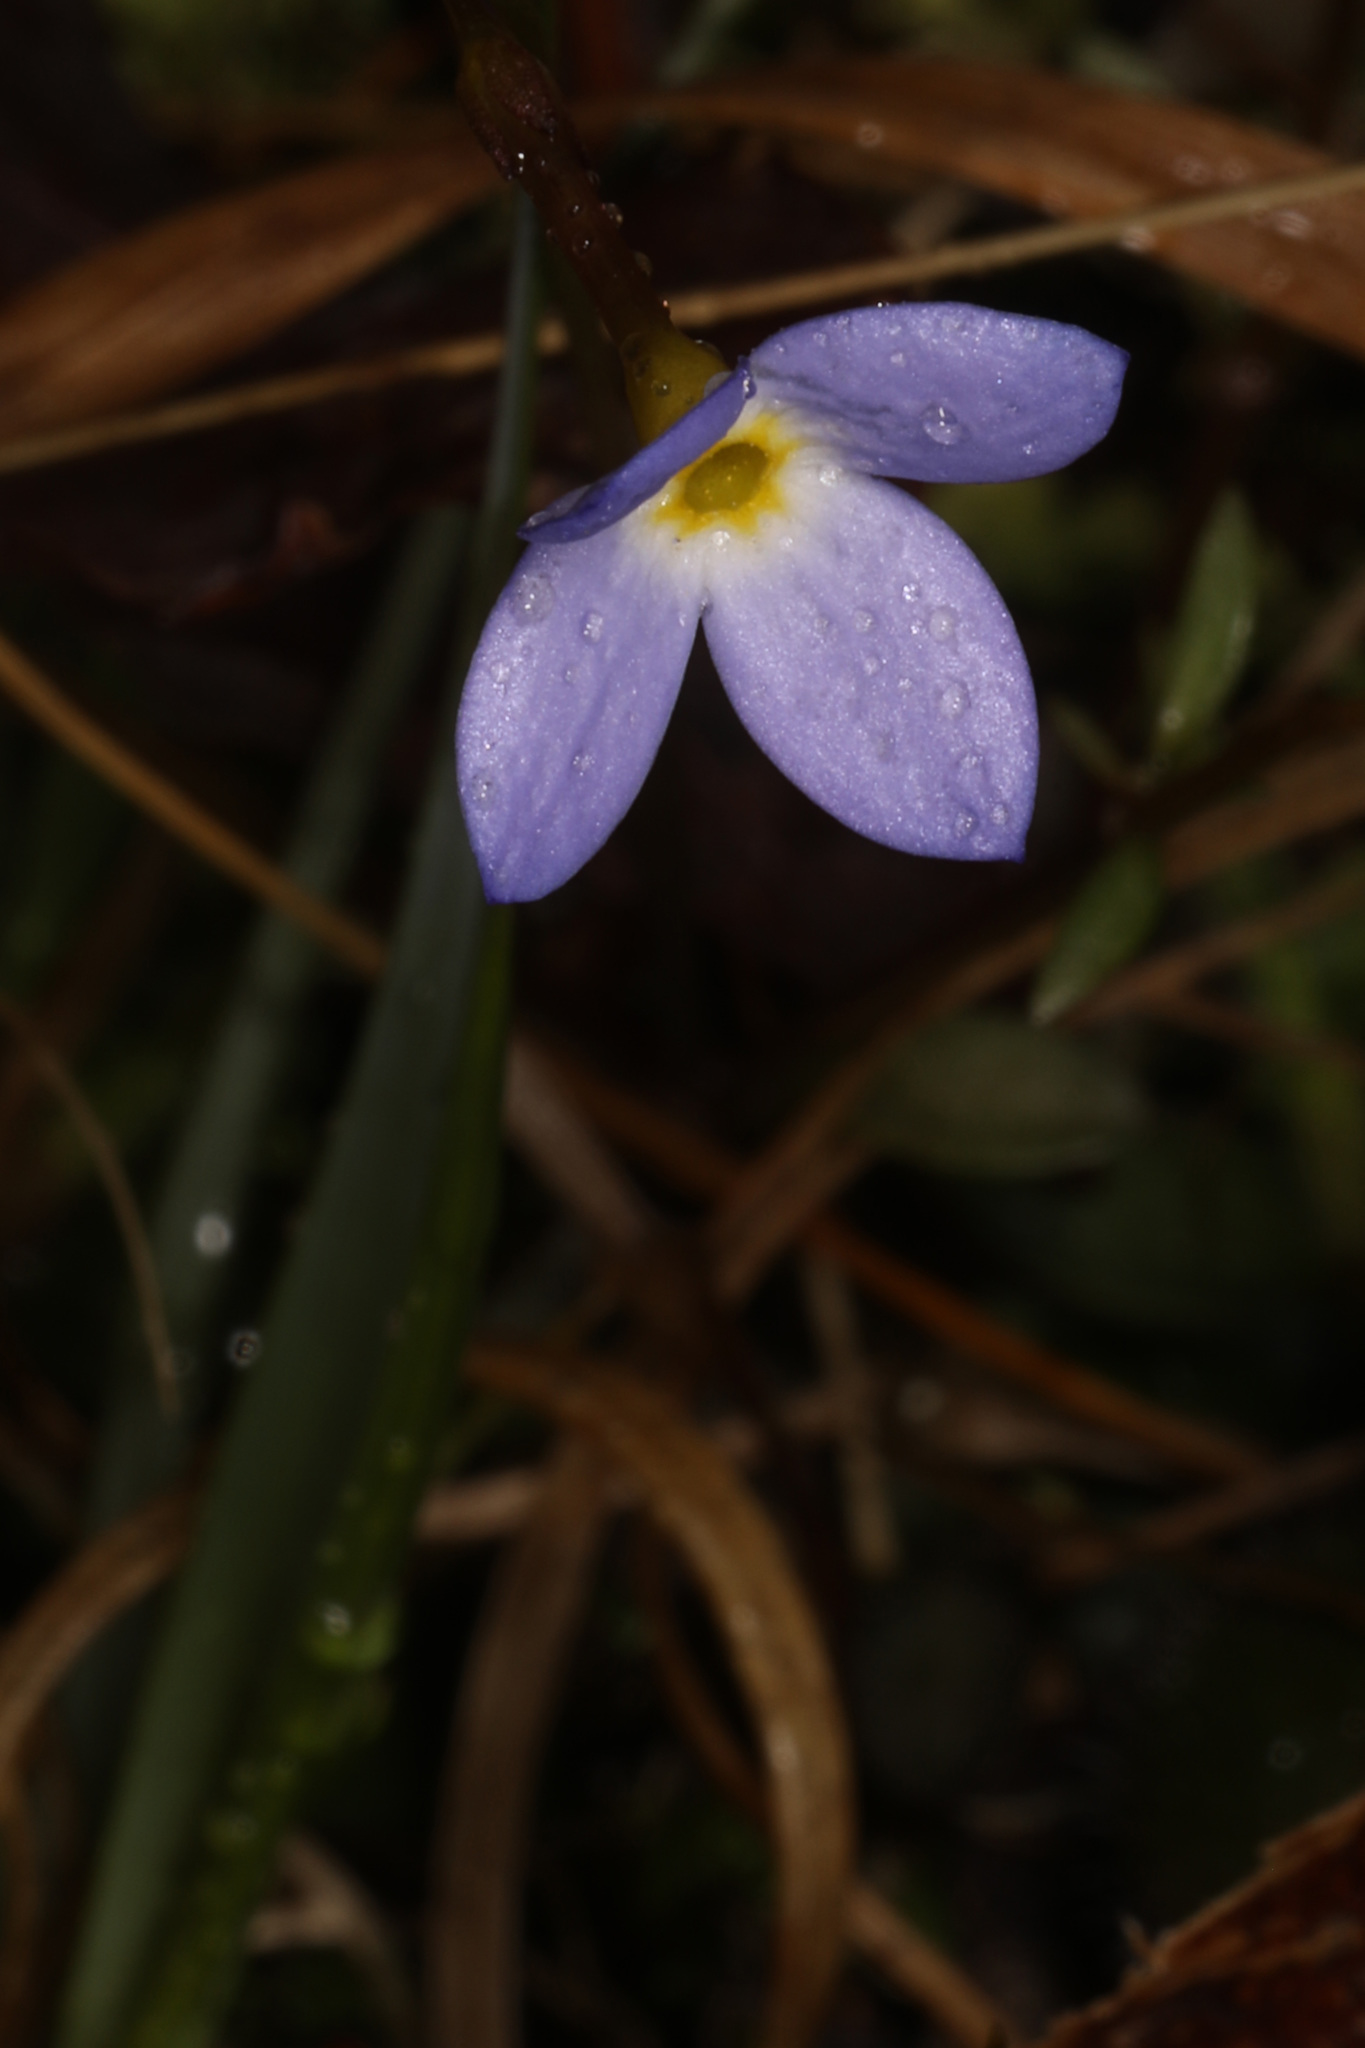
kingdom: Plantae
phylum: Tracheophyta
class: Magnoliopsida
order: Gentianales
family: Rubiaceae
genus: Houstonia
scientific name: Houstonia caerulea
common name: Bluets
